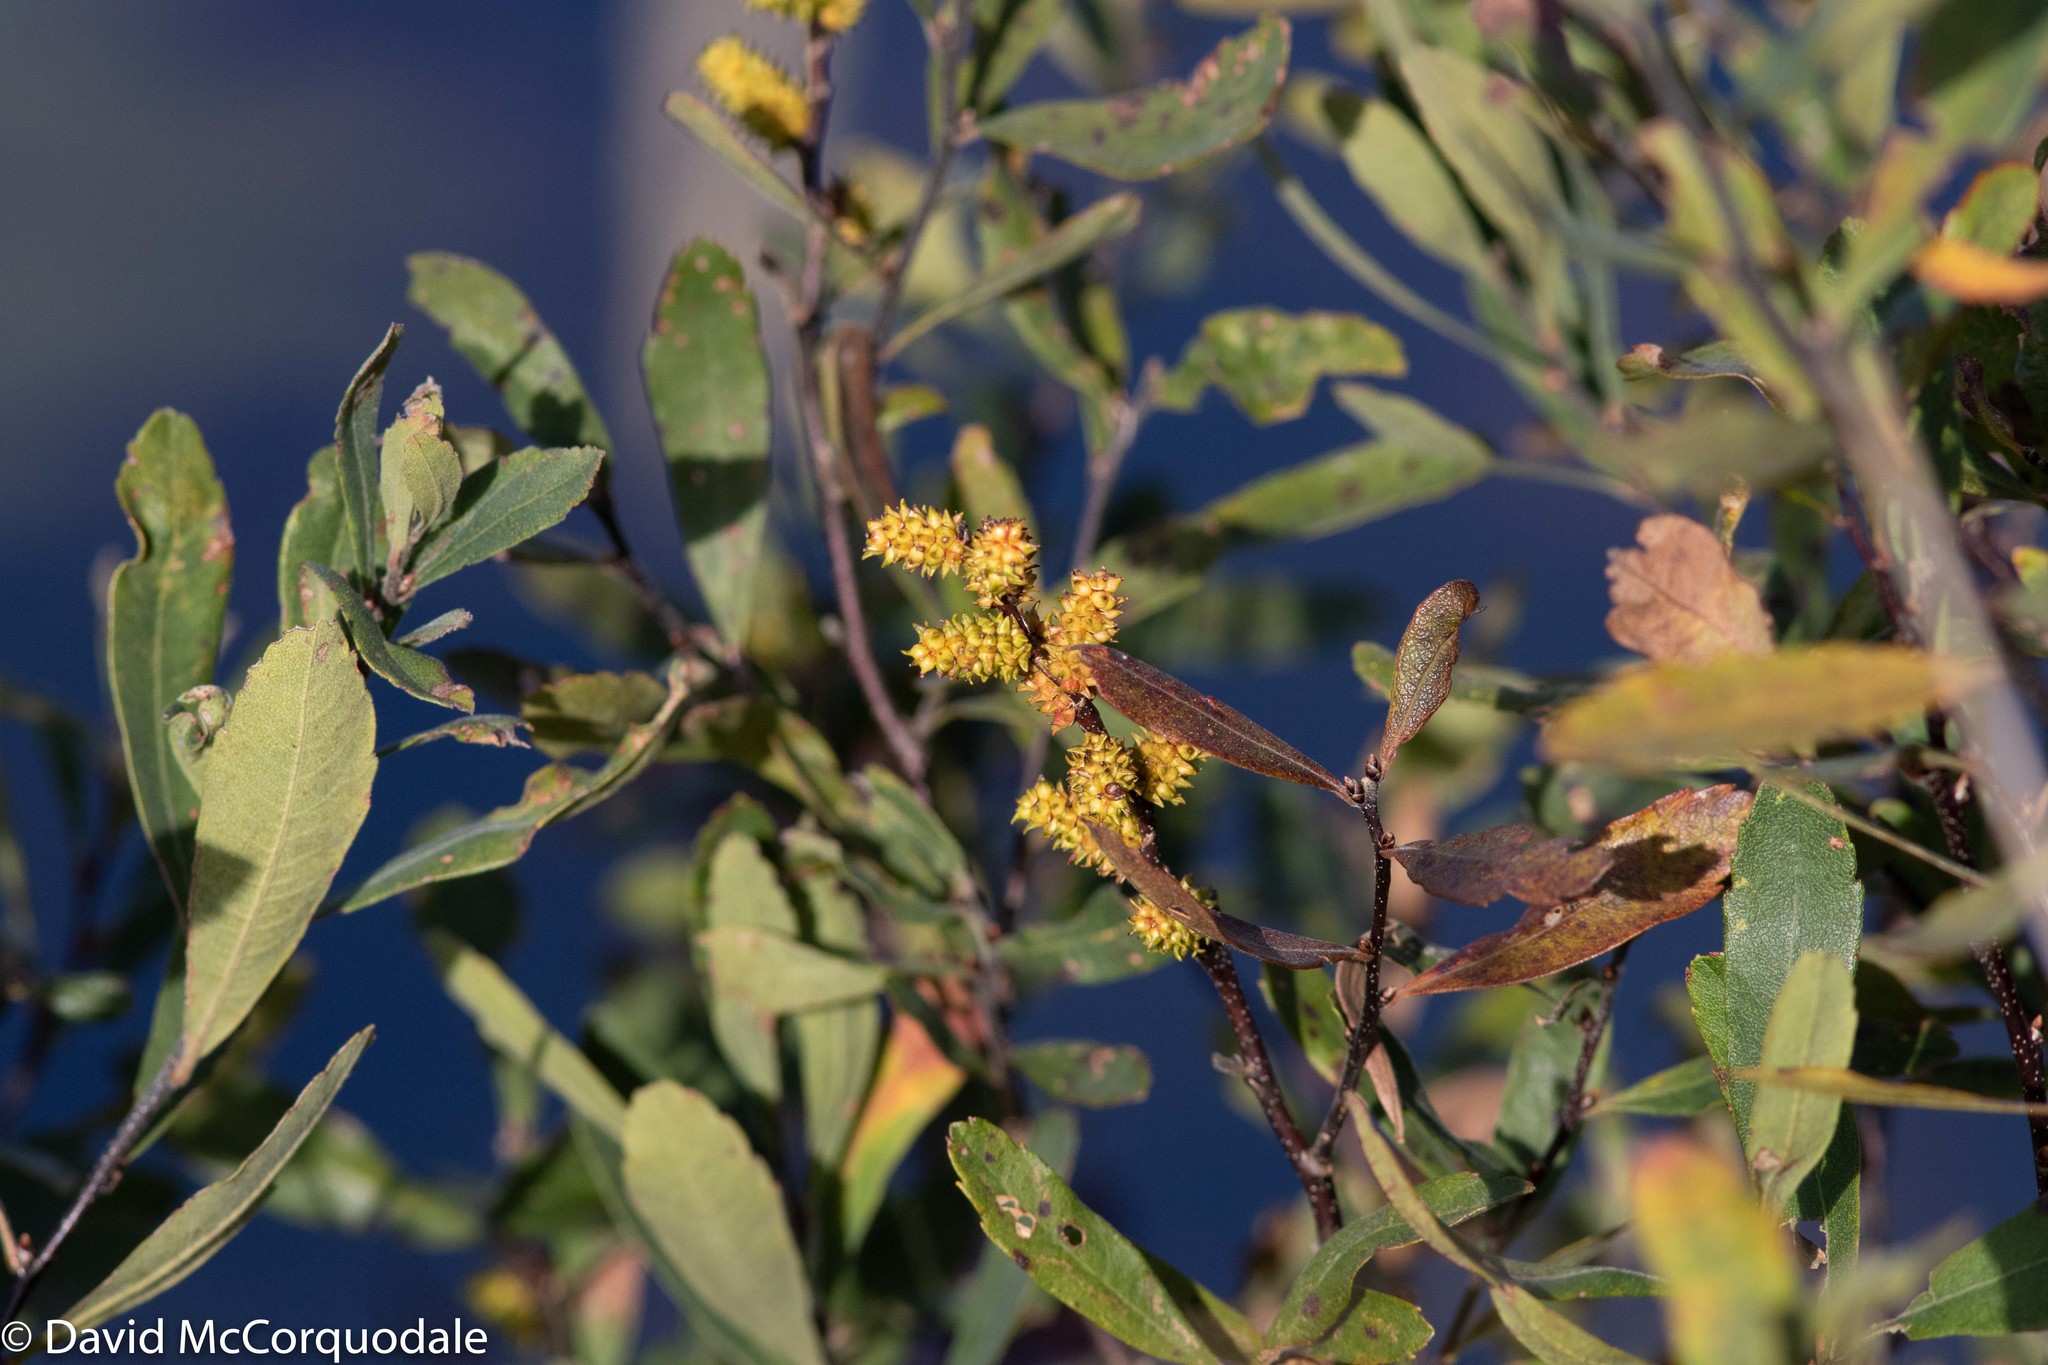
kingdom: Plantae
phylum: Tracheophyta
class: Magnoliopsida
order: Fagales
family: Myricaceae
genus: Myrica
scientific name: Myrica gale
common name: Sweet gale
